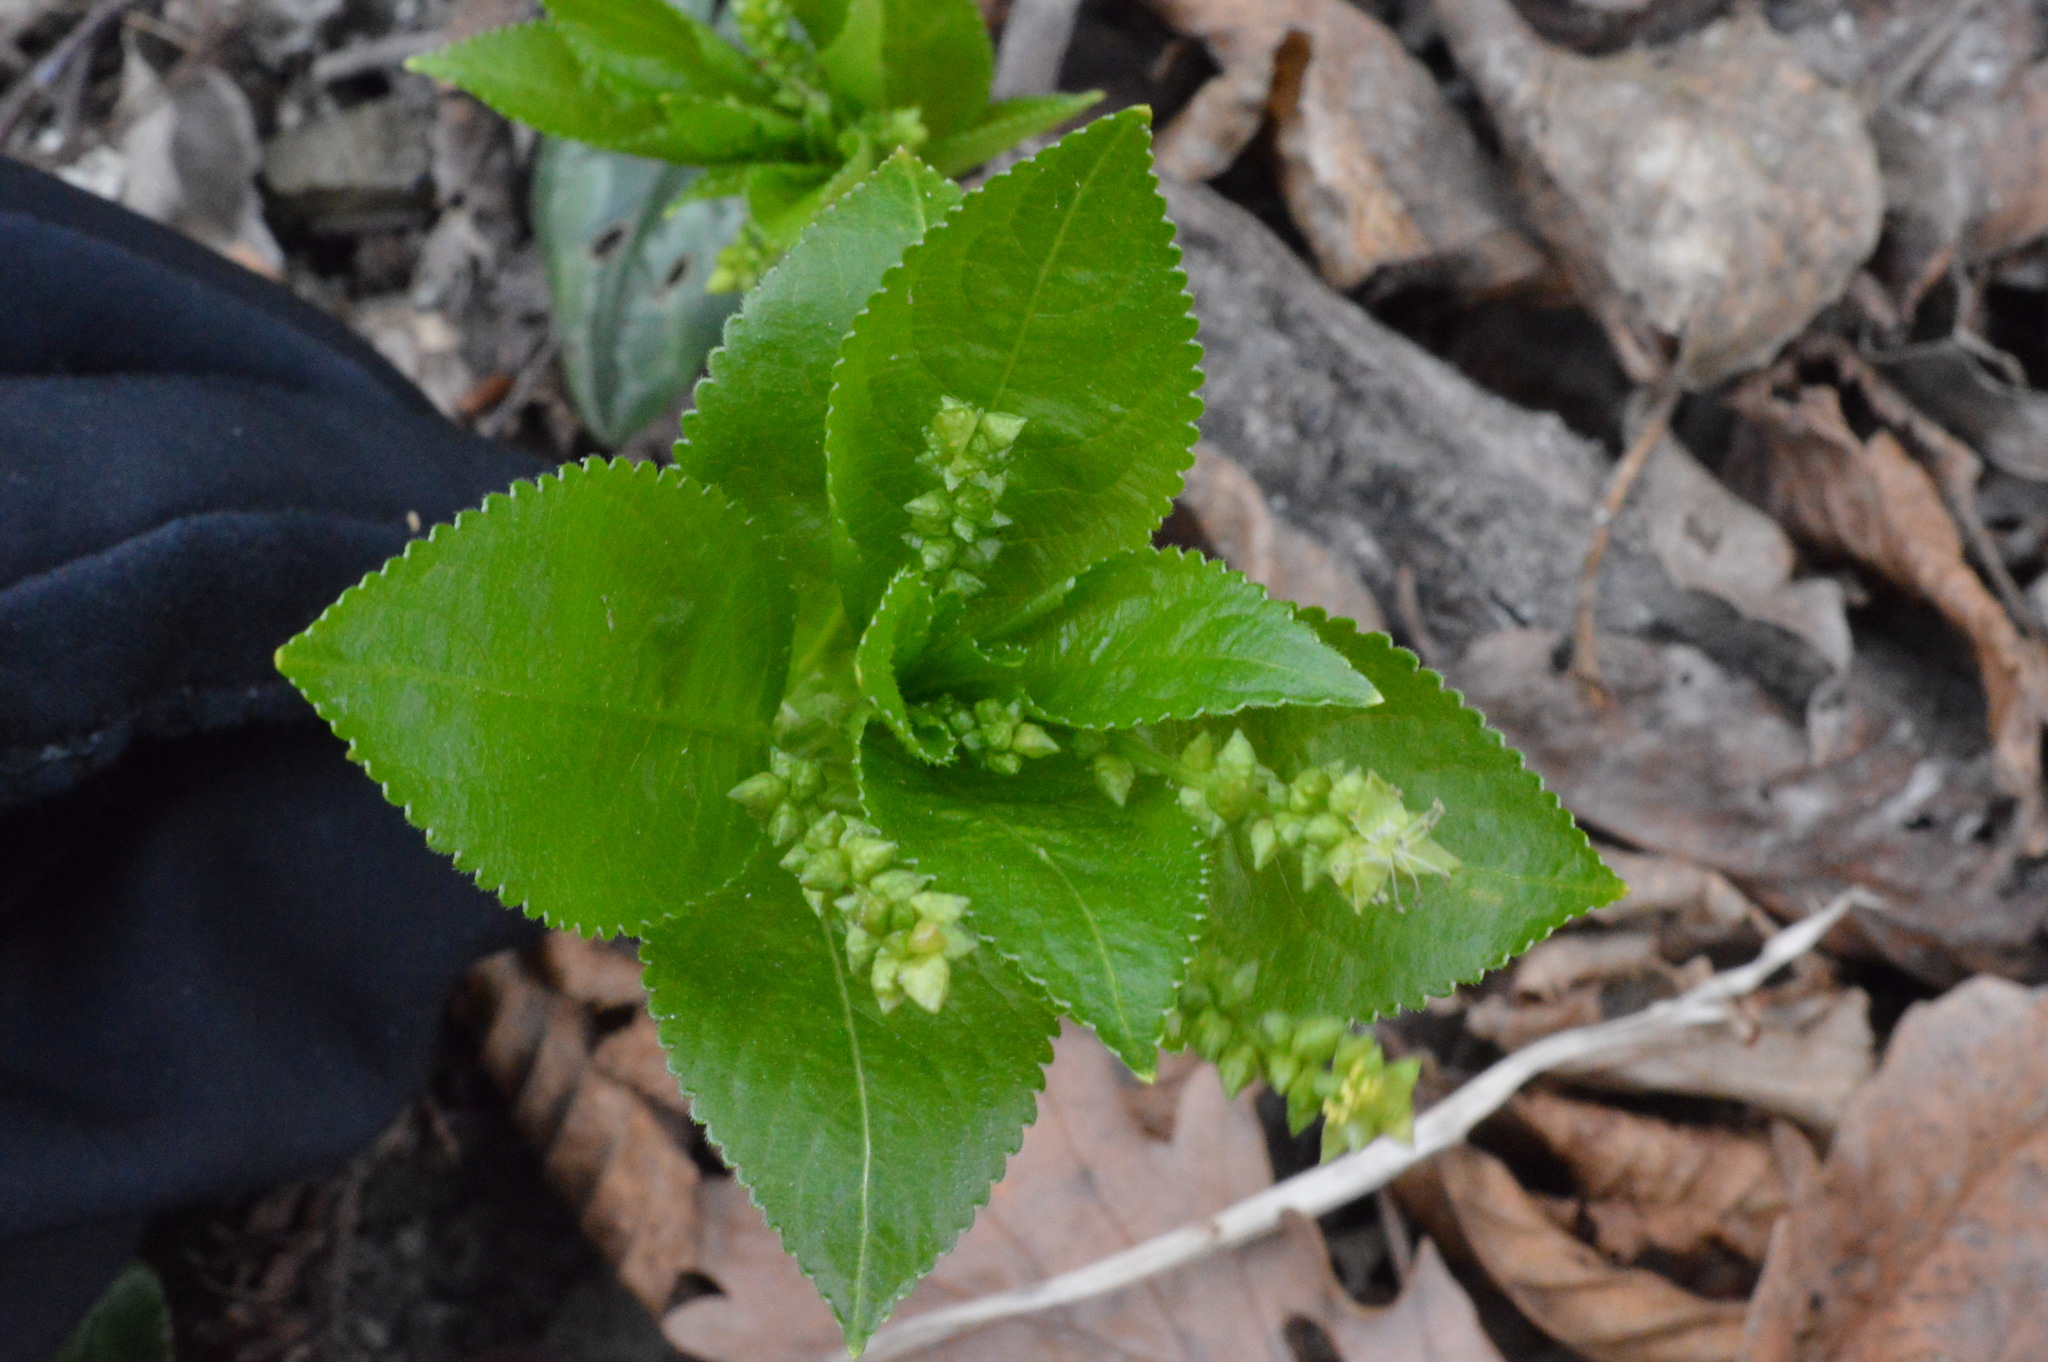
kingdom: Plantae
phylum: Tracheophyta
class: Magnoliopsida
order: Malpighiales
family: Euphorbiaceae
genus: Mercurialis
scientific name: Mercurialis annua
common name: Annual mercury
